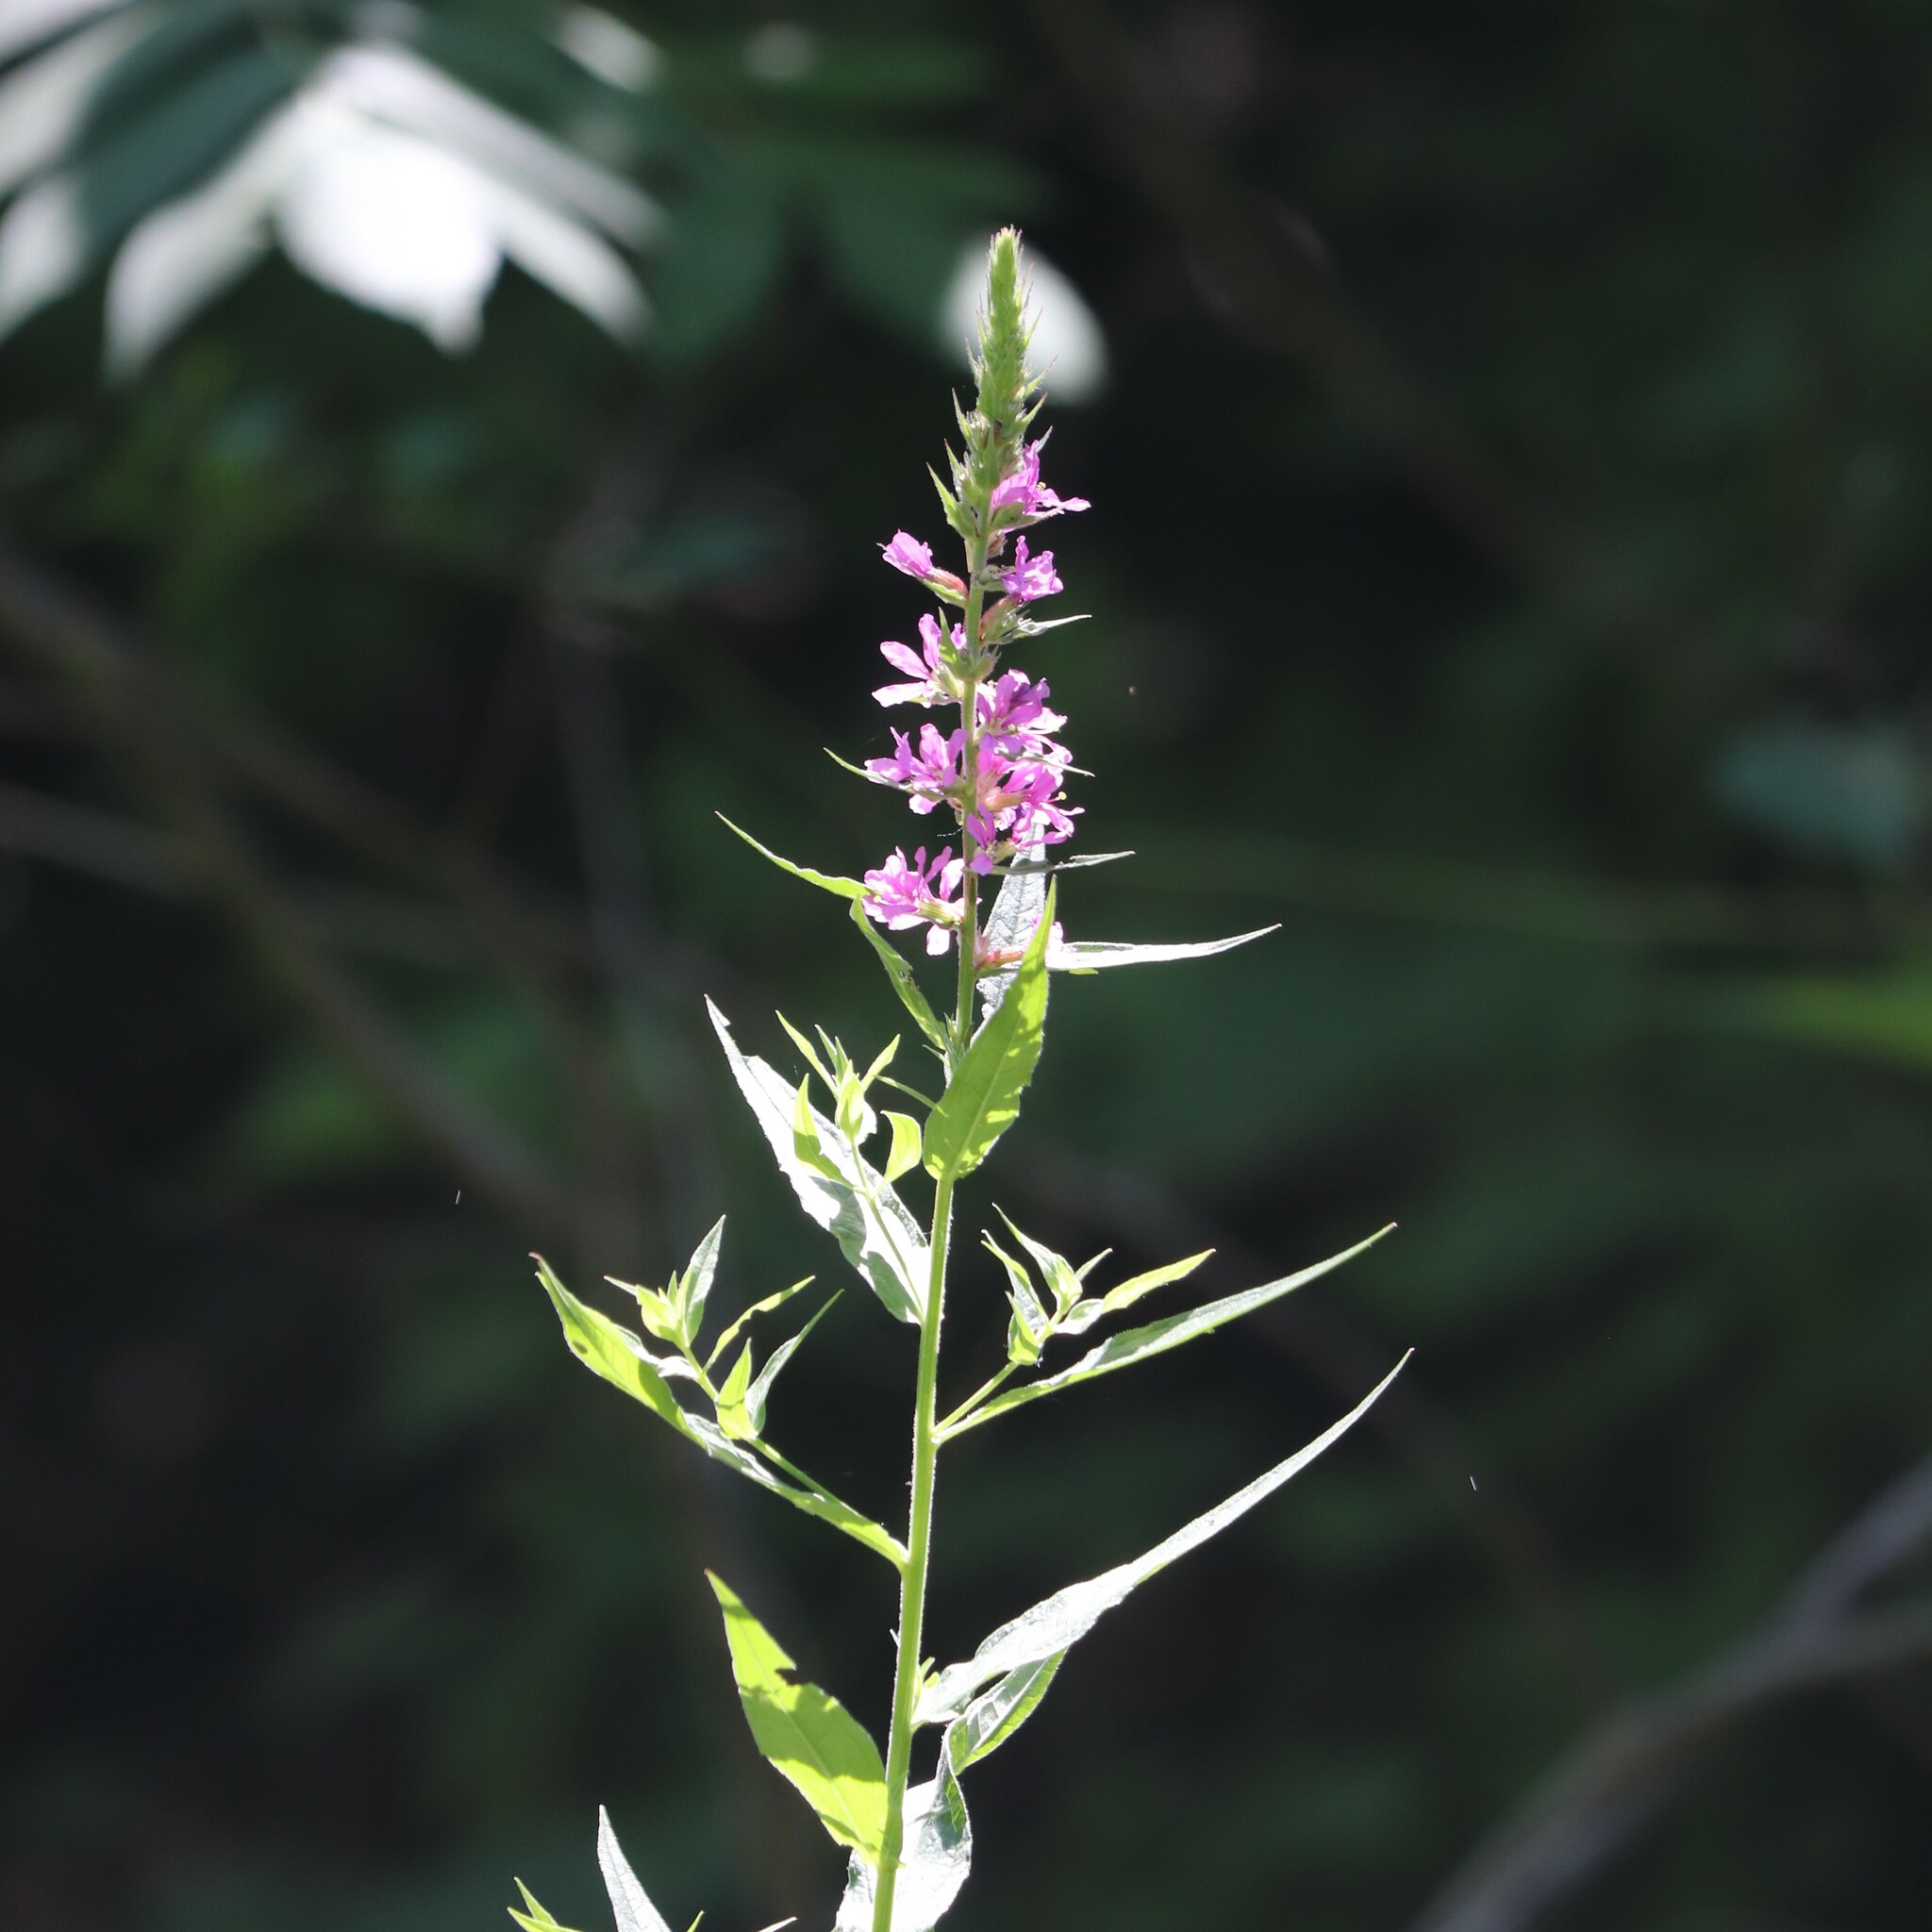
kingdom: Plantae
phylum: Tracheophyta
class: Magnoliopsida
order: Myrtales
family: Lythraceae
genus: Lythrum
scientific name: Lythrum salicaria
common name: Purple loosestrife
